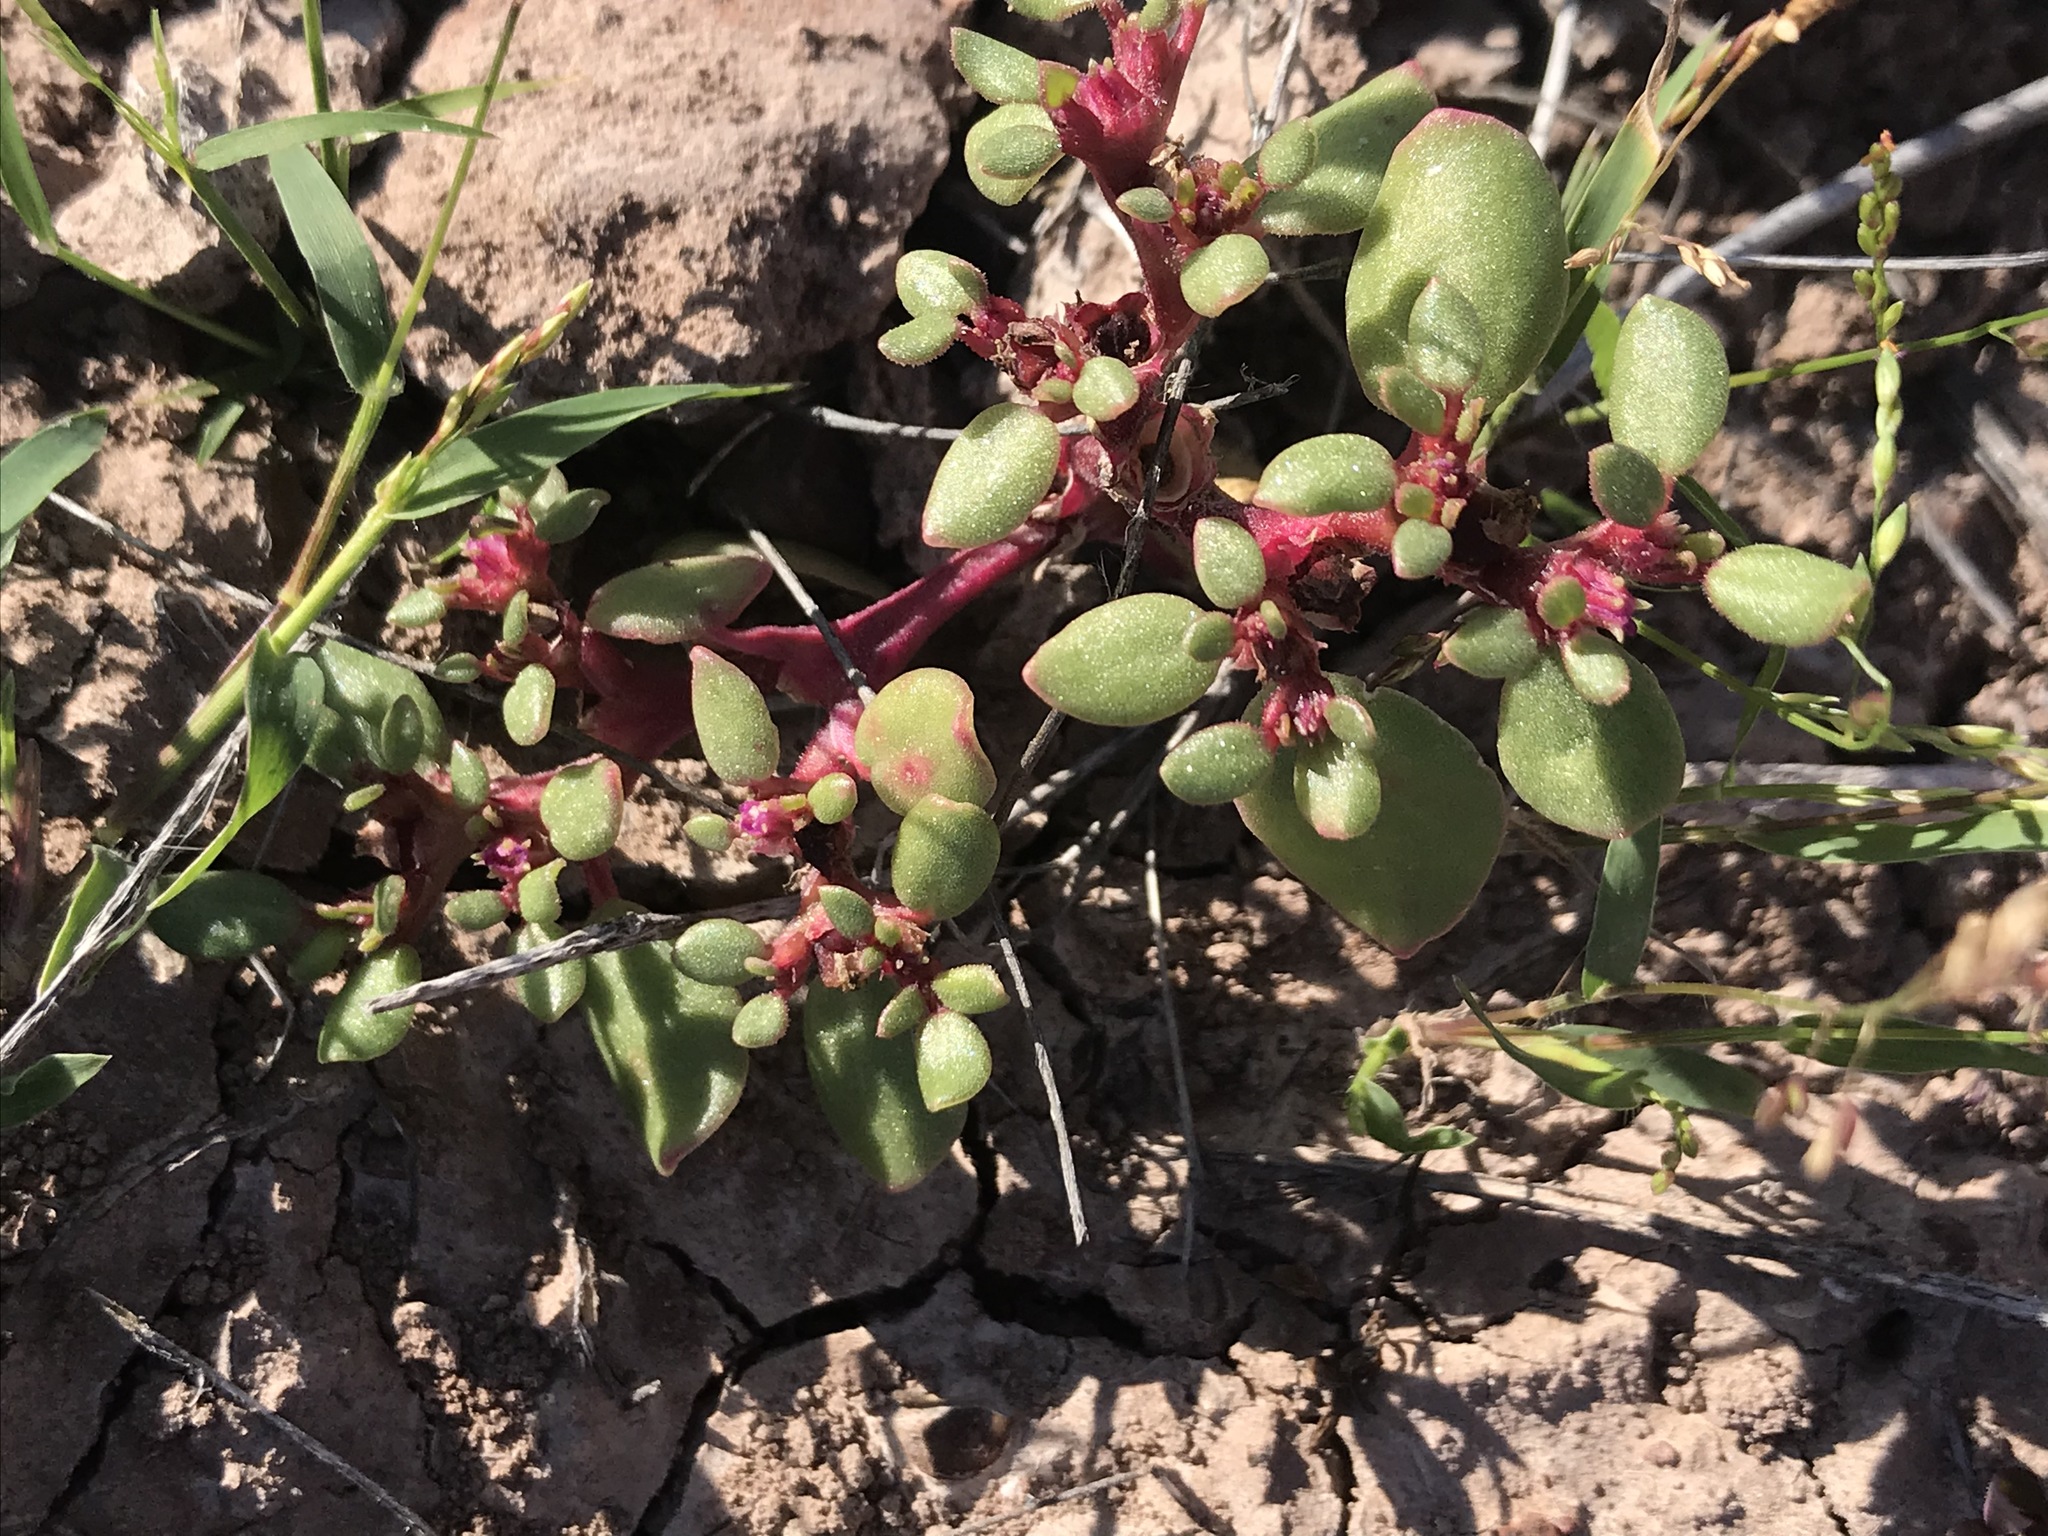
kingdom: Plantae
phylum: Tracheophyta
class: Magnoliopsida
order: Caryophyllales
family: Aizoaceae
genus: Trianthema
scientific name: Trianthema portulacastrum
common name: Desert horsepurslane
